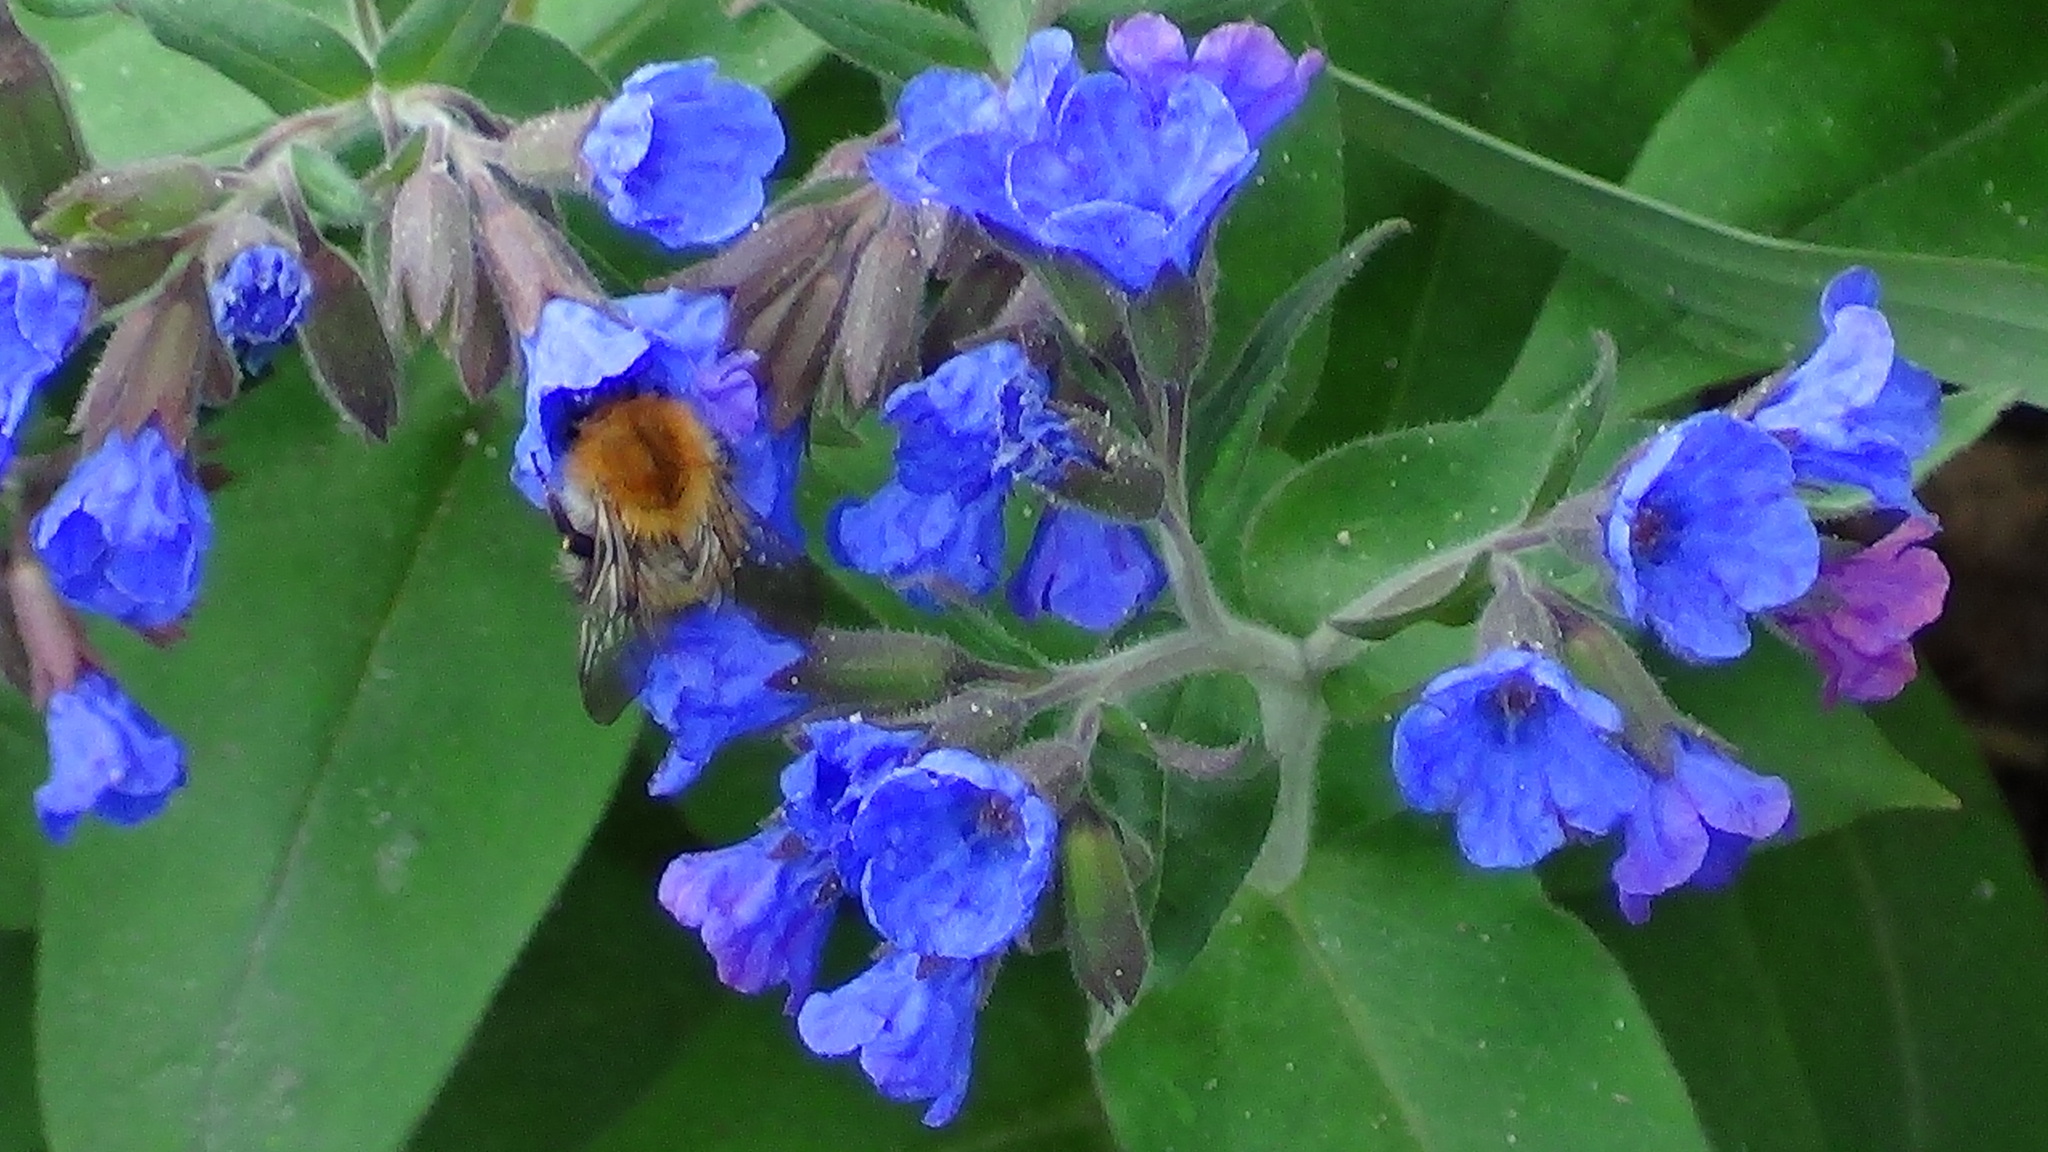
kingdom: Animalia
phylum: Arthropoda
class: Insecta
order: Hymenoptera
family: Apidae
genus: Bombus
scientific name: Bombus pascuorum
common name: Common carder bee
